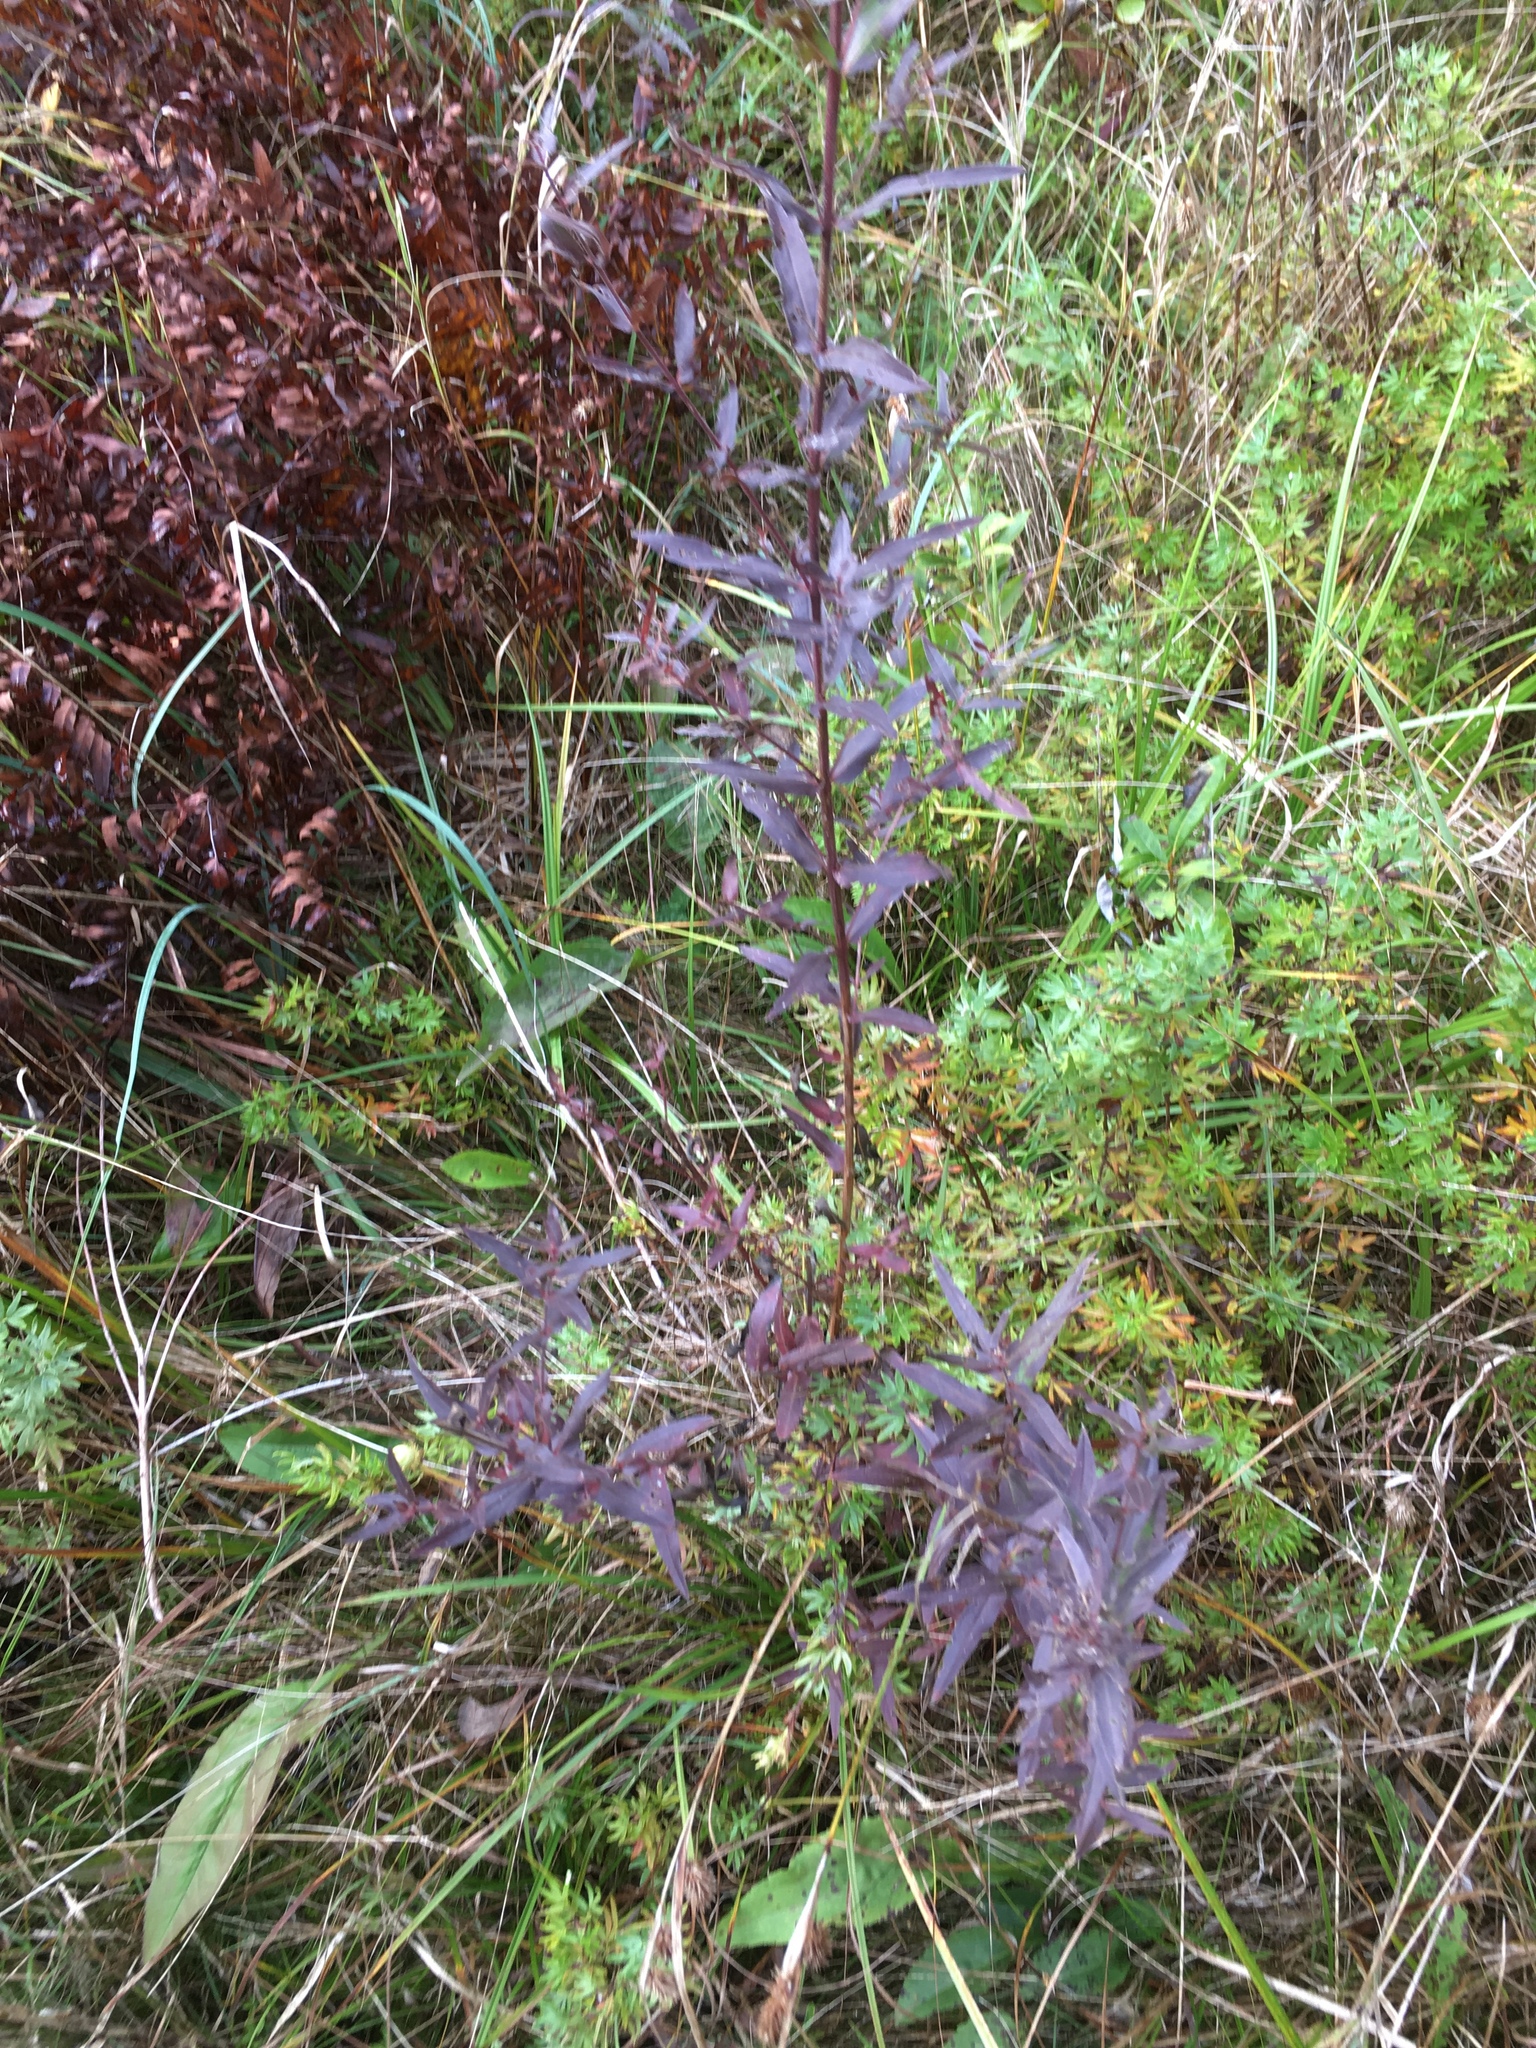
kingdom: Plantae
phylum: Tracheophyta
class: Magnoliopsida
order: Myrtales
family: Lythraceae
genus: Lythrum
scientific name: Lythrum salicaria
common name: Purple loosestrife
